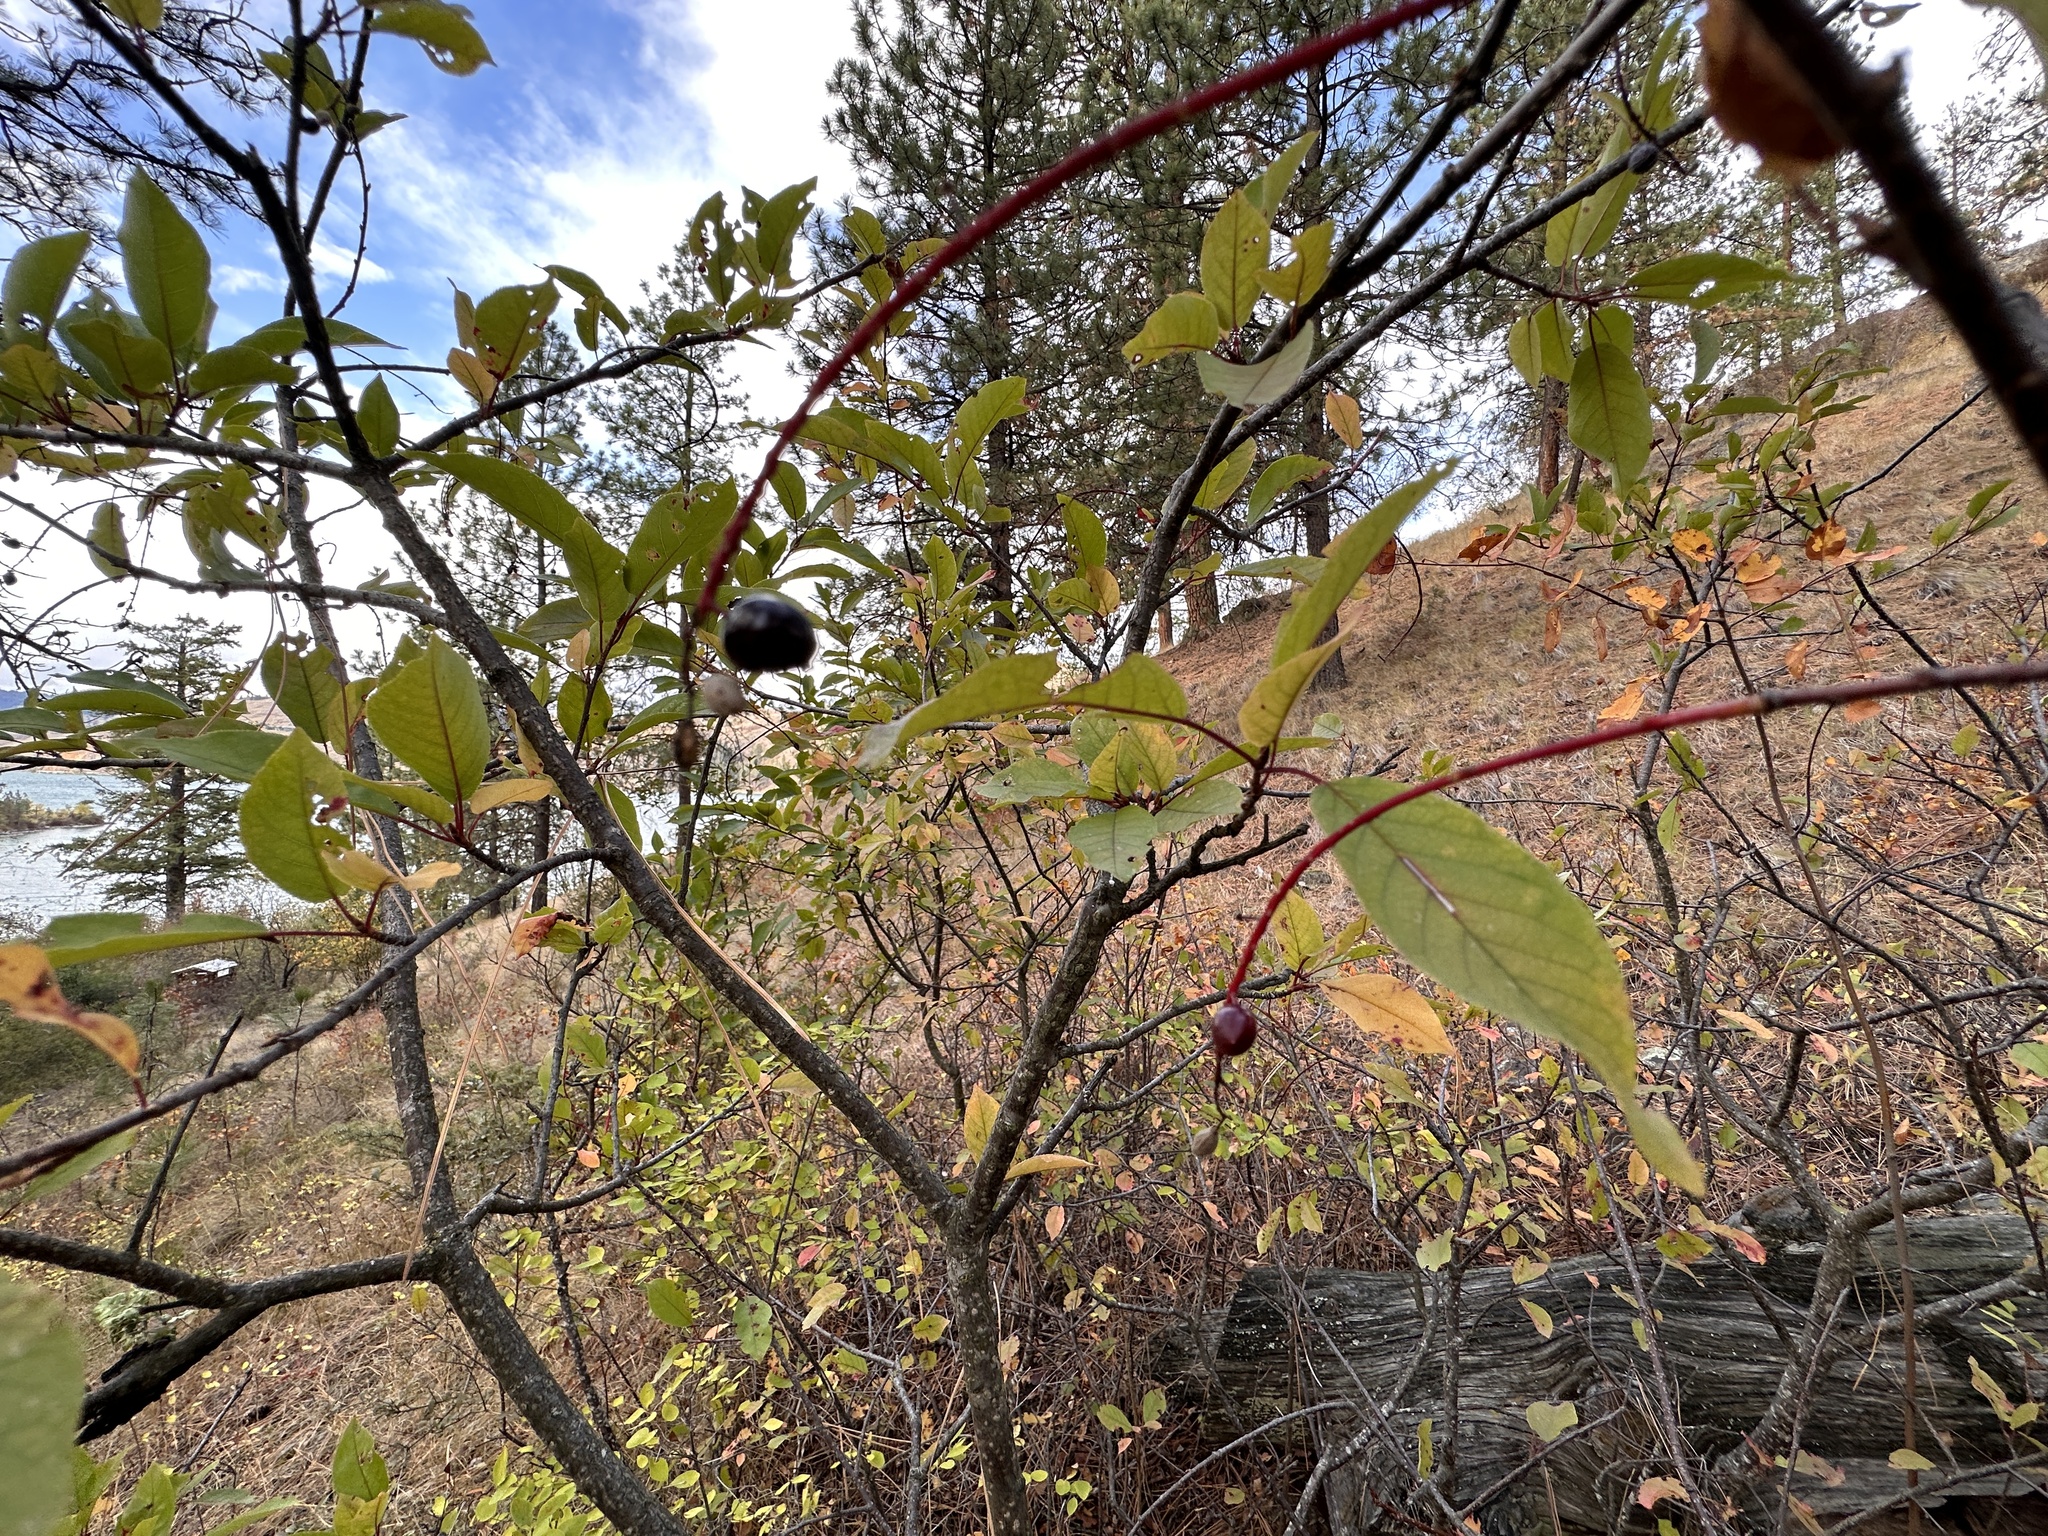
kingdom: Plantae
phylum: Tracheophyta
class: Magnoliopsida
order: Rosales
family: Rosaceae
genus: Prunus
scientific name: Prunus virginiana
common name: Chokecherry
